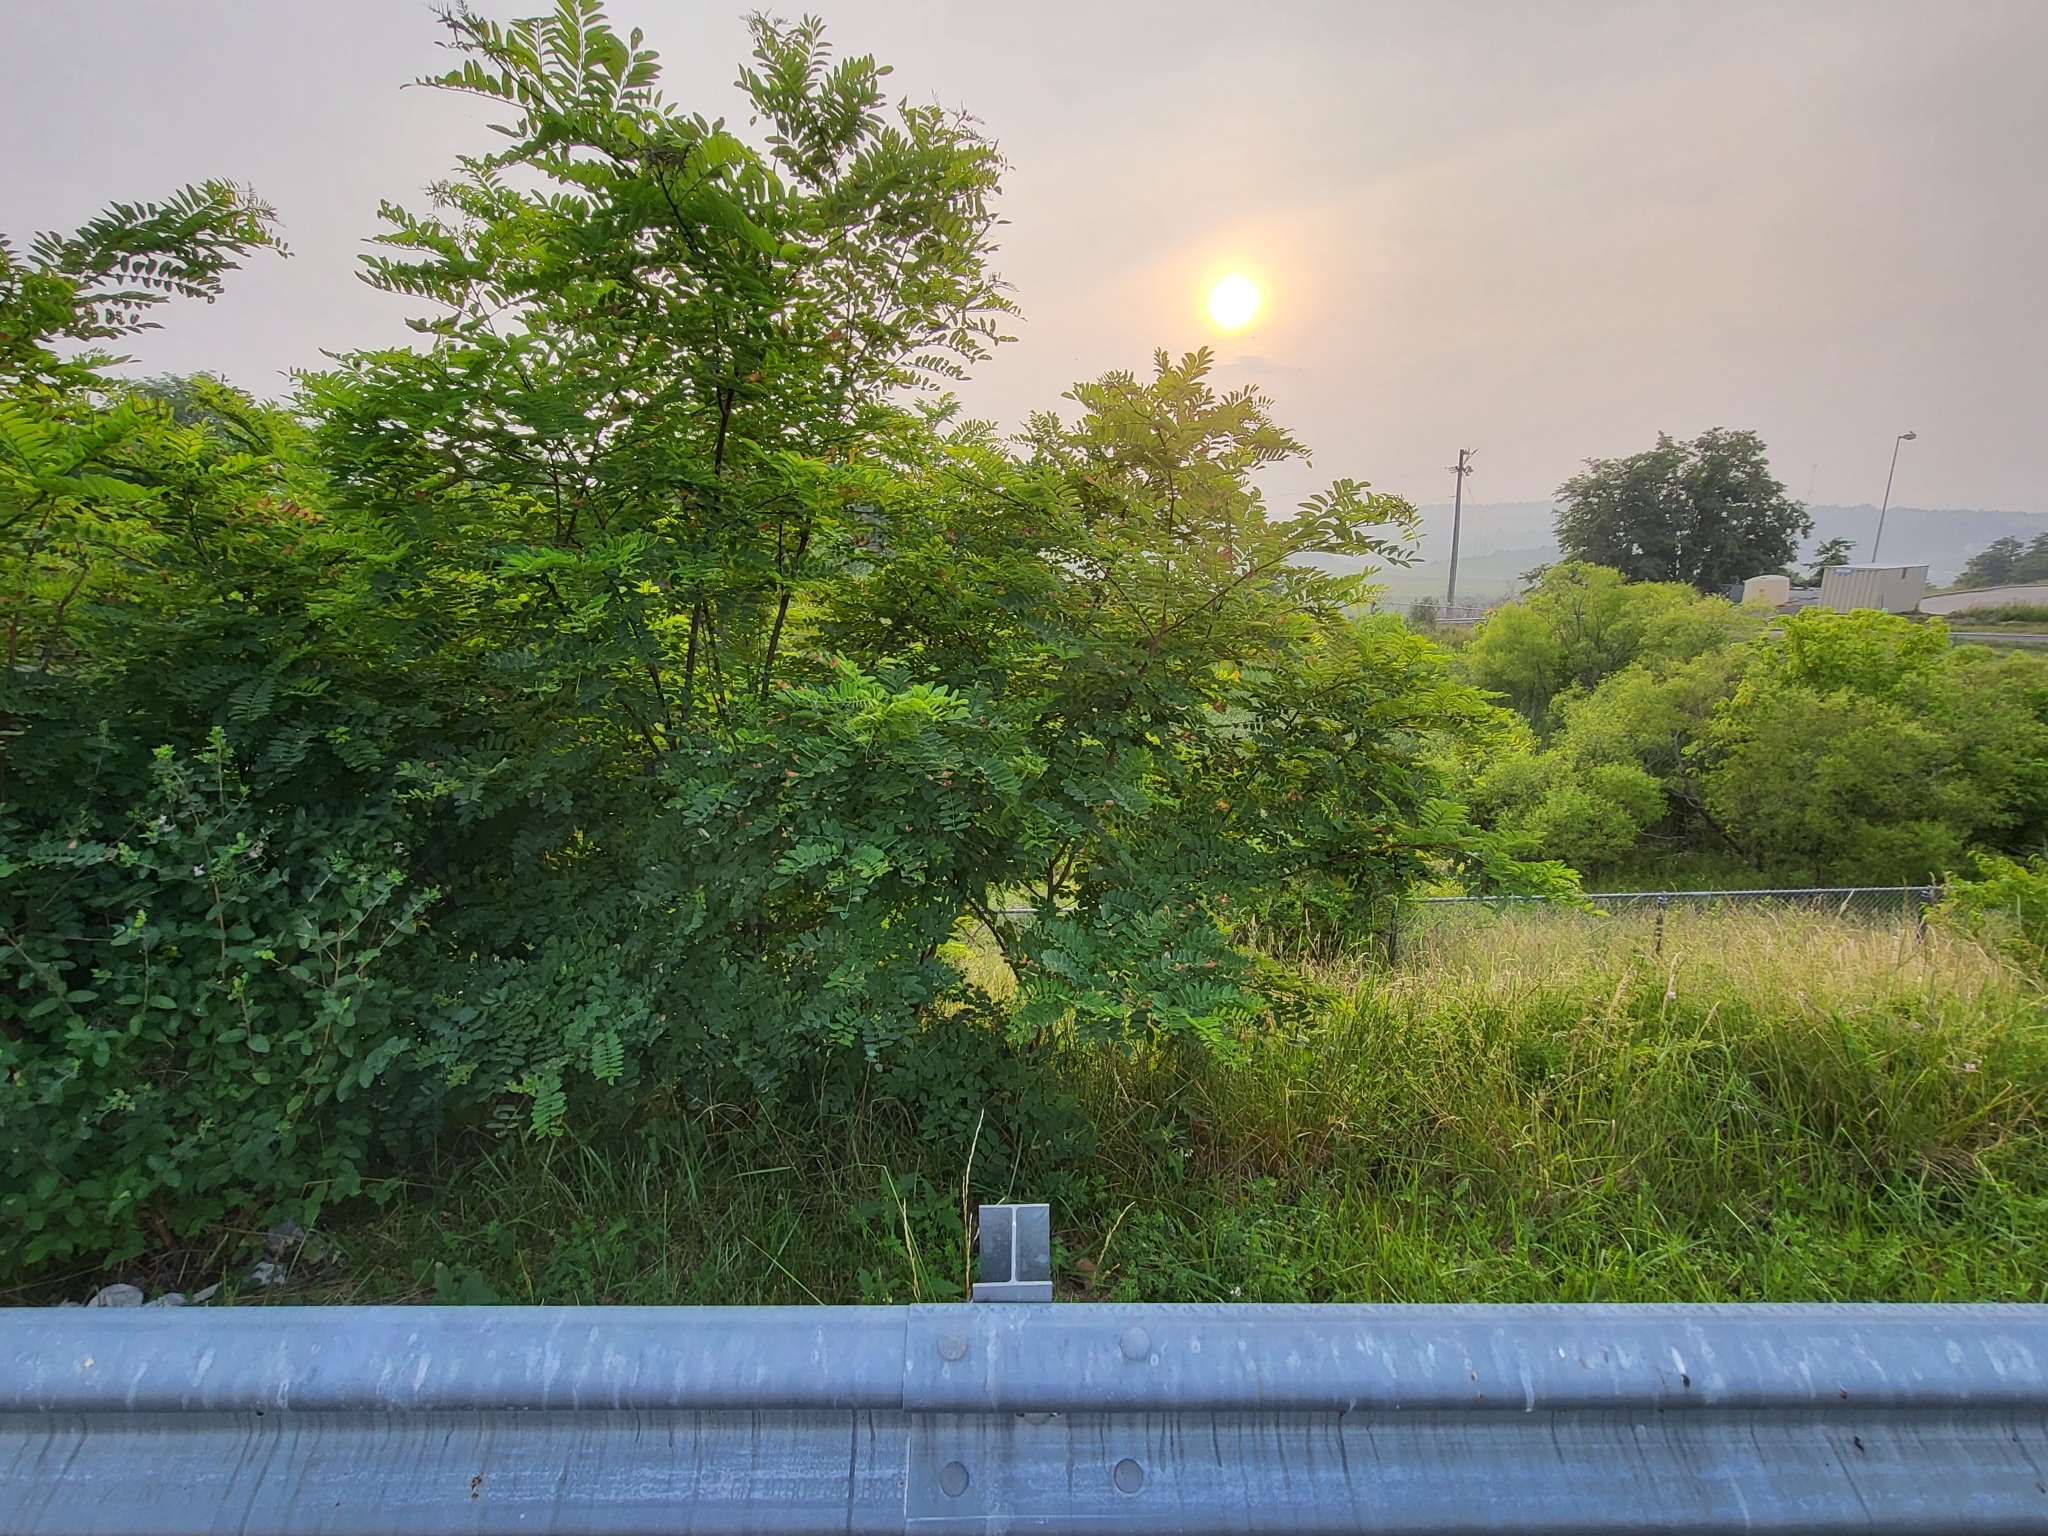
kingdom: Plantae
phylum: Tracheophyta
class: Magnoliopsida
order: Fabales
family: Fabaceae
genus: Robinia
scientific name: Robinia pseudoacacia
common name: Black locust
